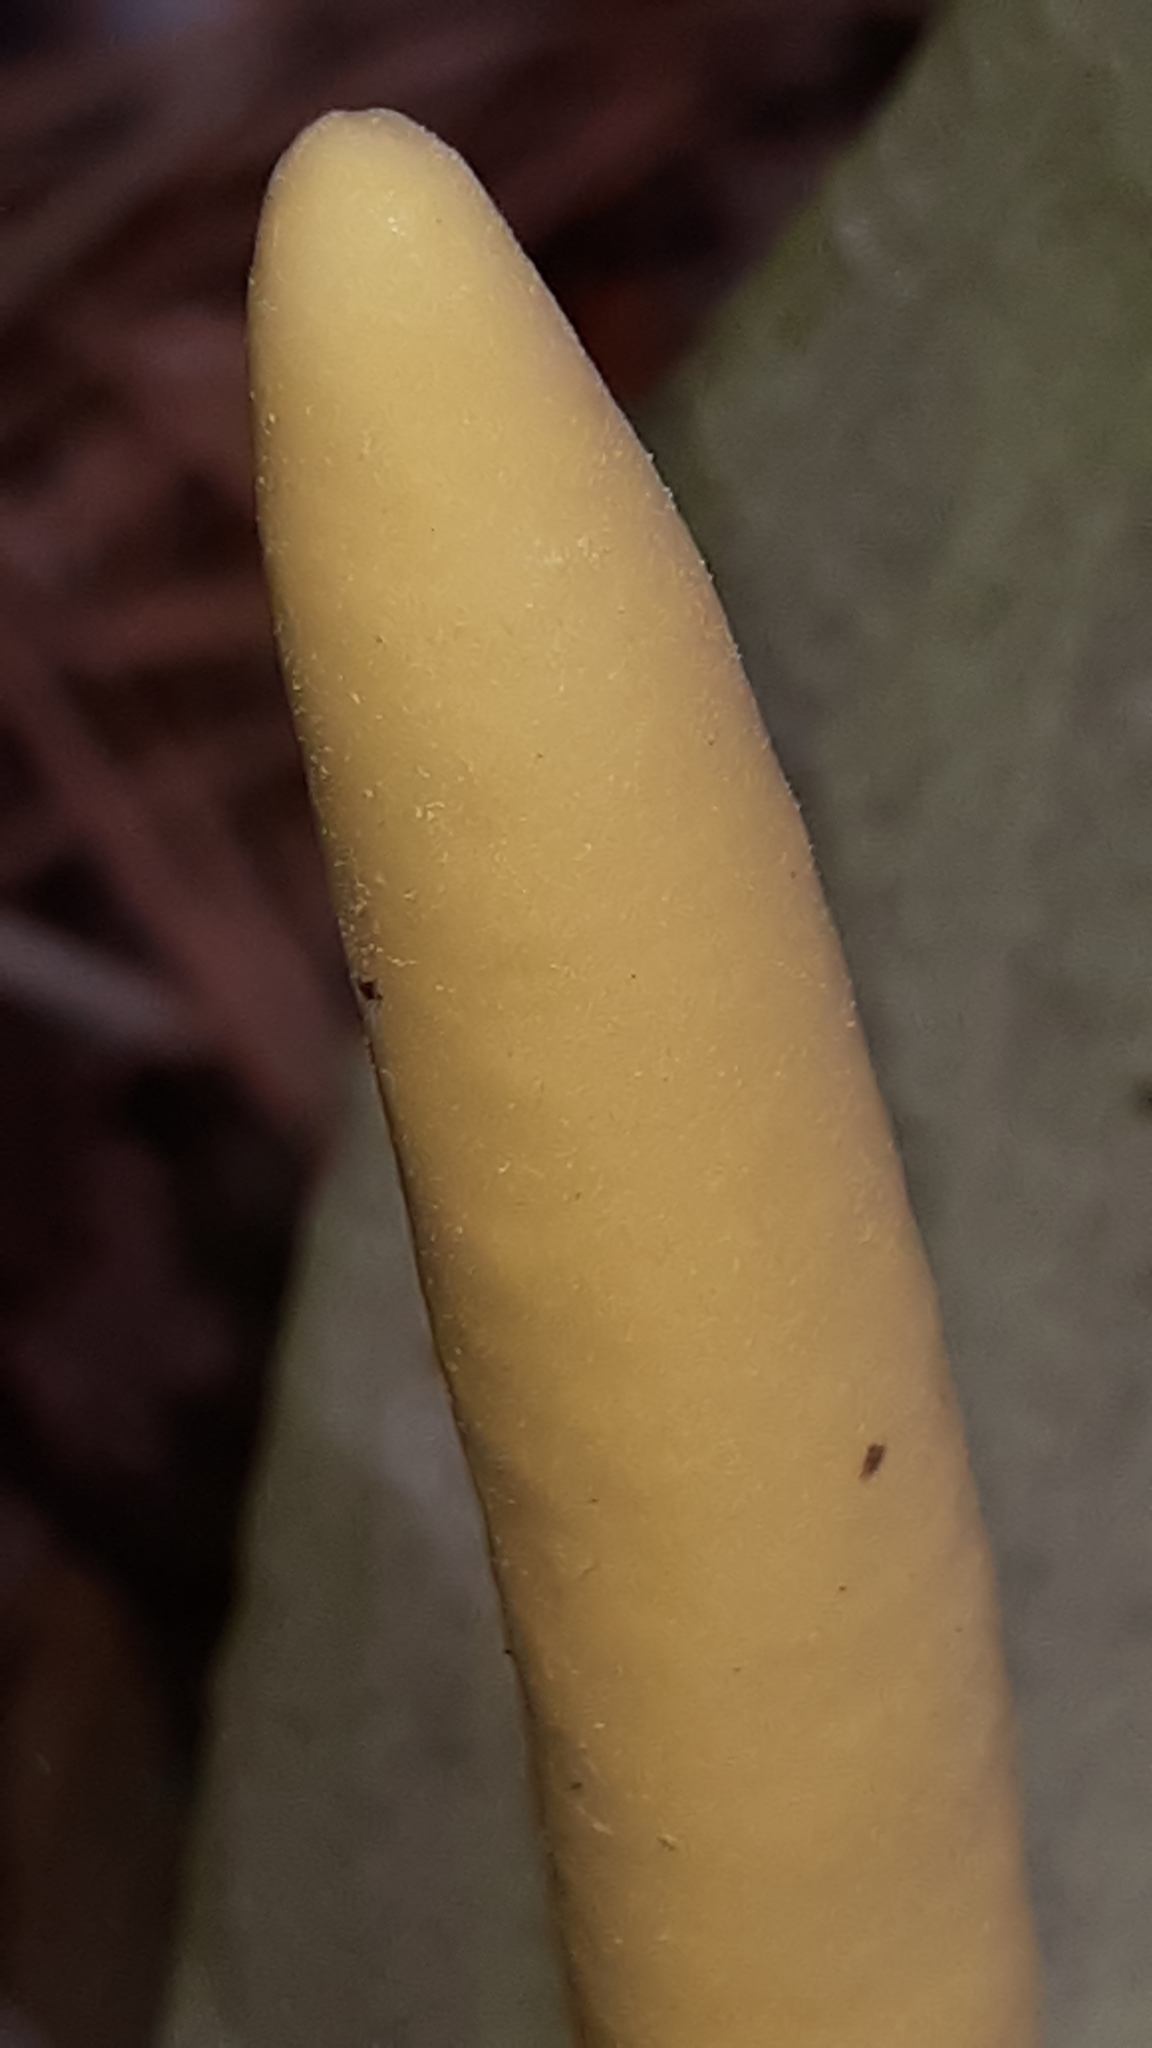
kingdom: Plantae
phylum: Tracheophyta
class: Liliopsida
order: Alismatales
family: Araceae
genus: Arum
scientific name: Arum italicum
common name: Italian lords-and-ladies
